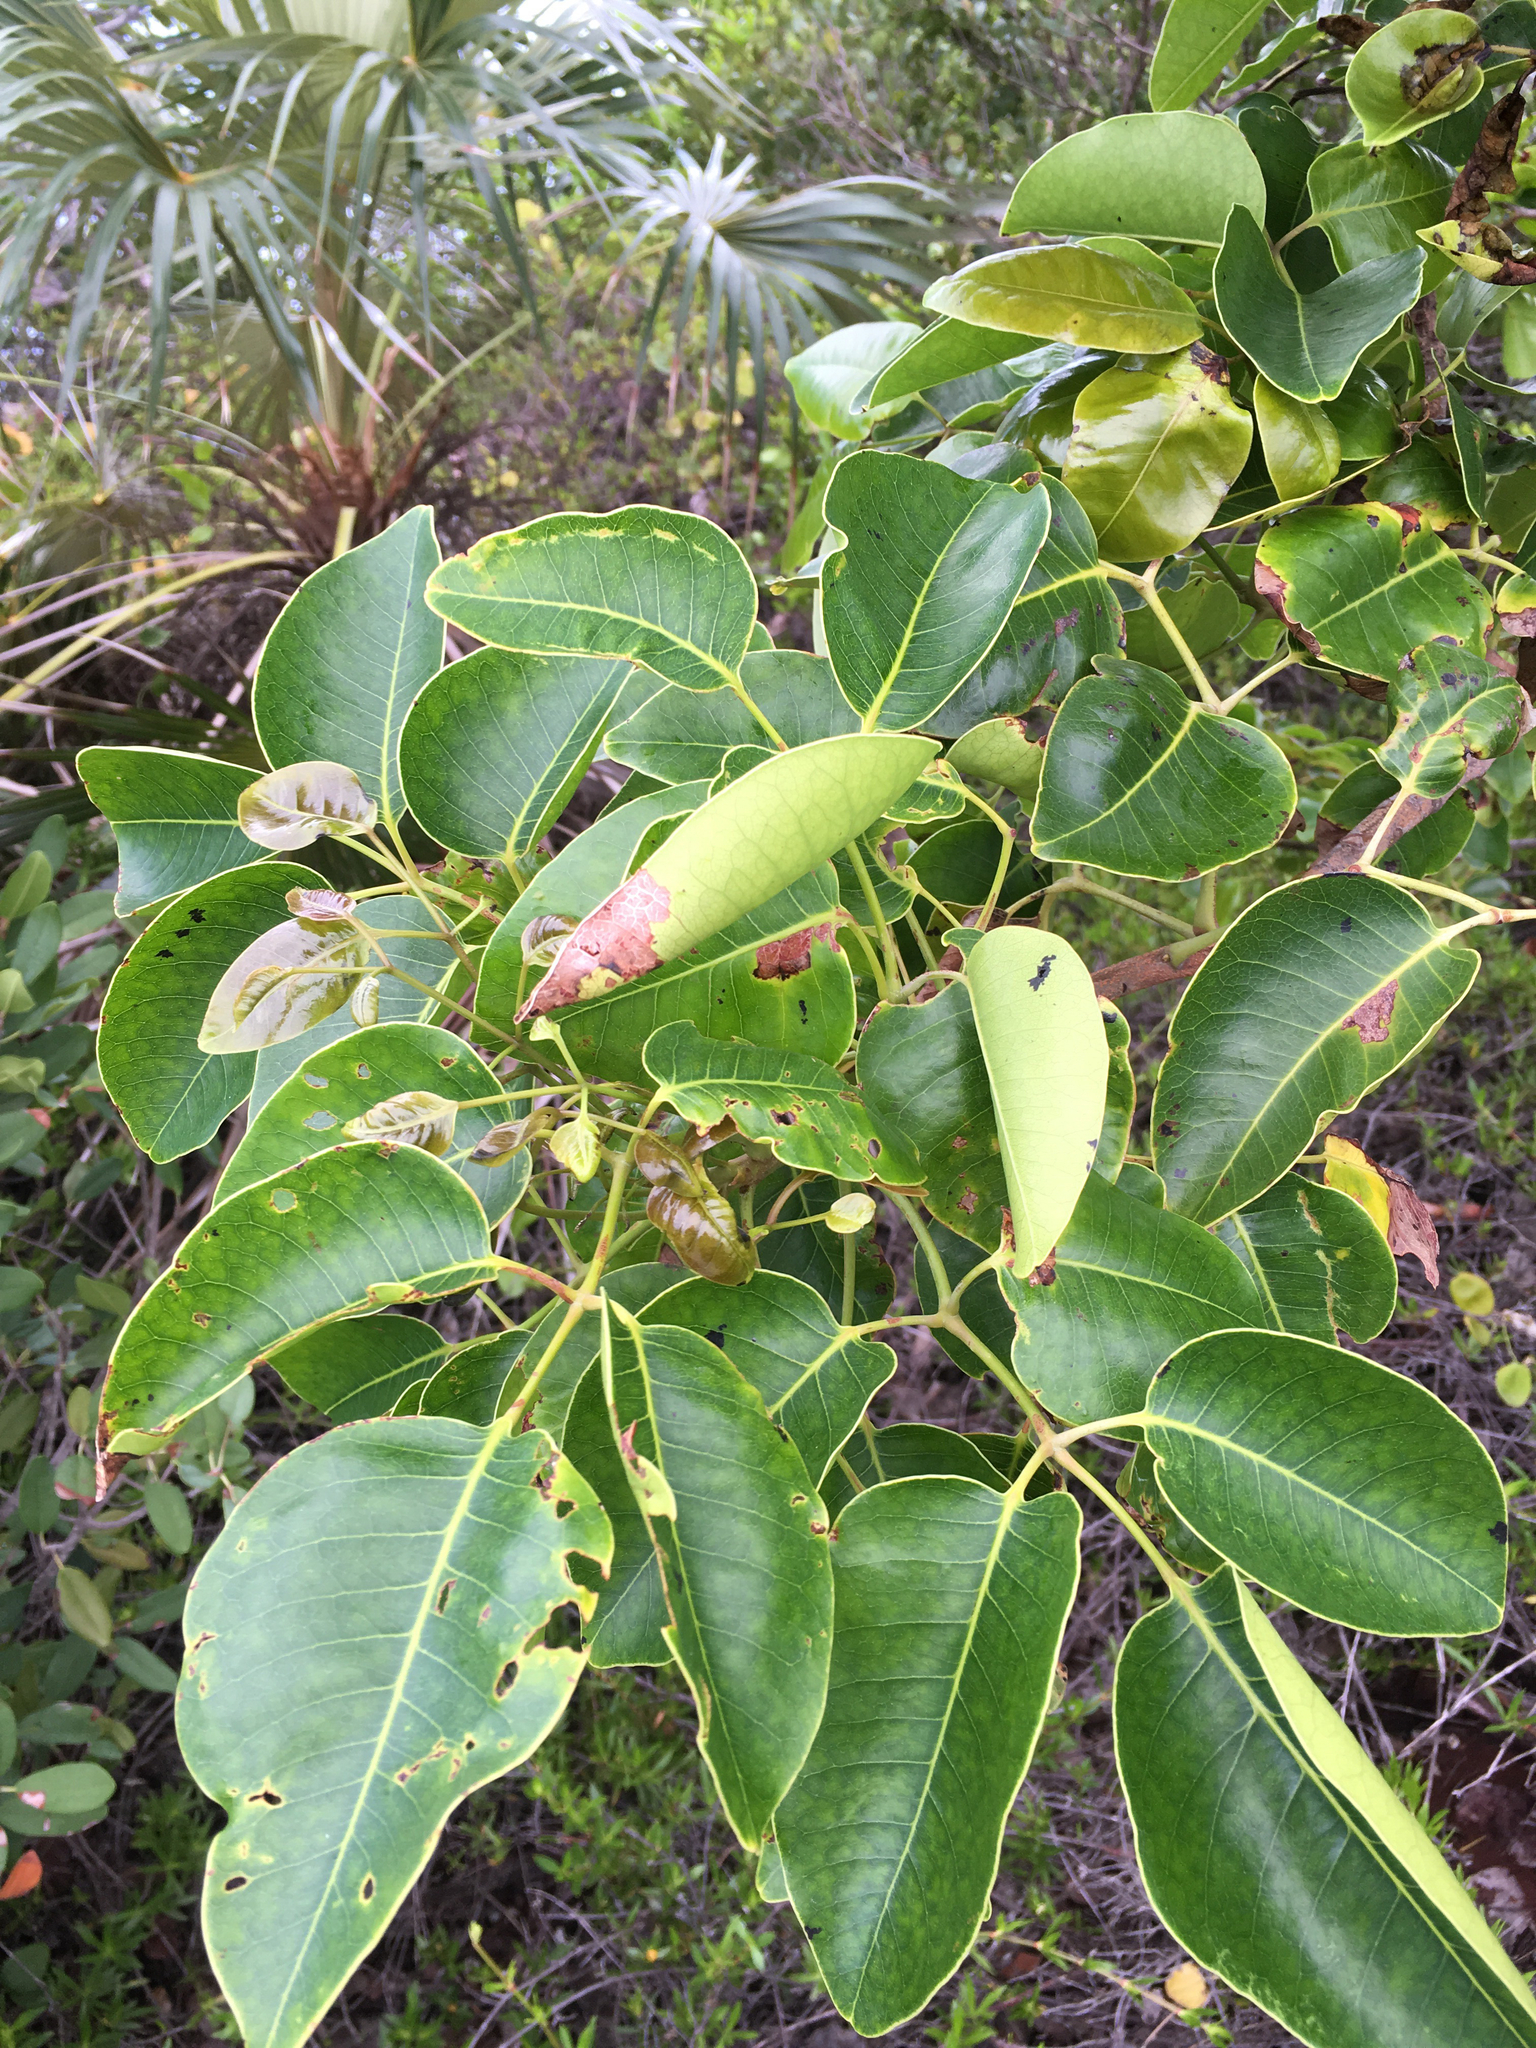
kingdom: Plantae
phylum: Tracheophyta
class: Magnoliopsida
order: Sapindales
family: Anacardiaceae
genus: Metopium
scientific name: Metopium toxiferum
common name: Florida poisontree
